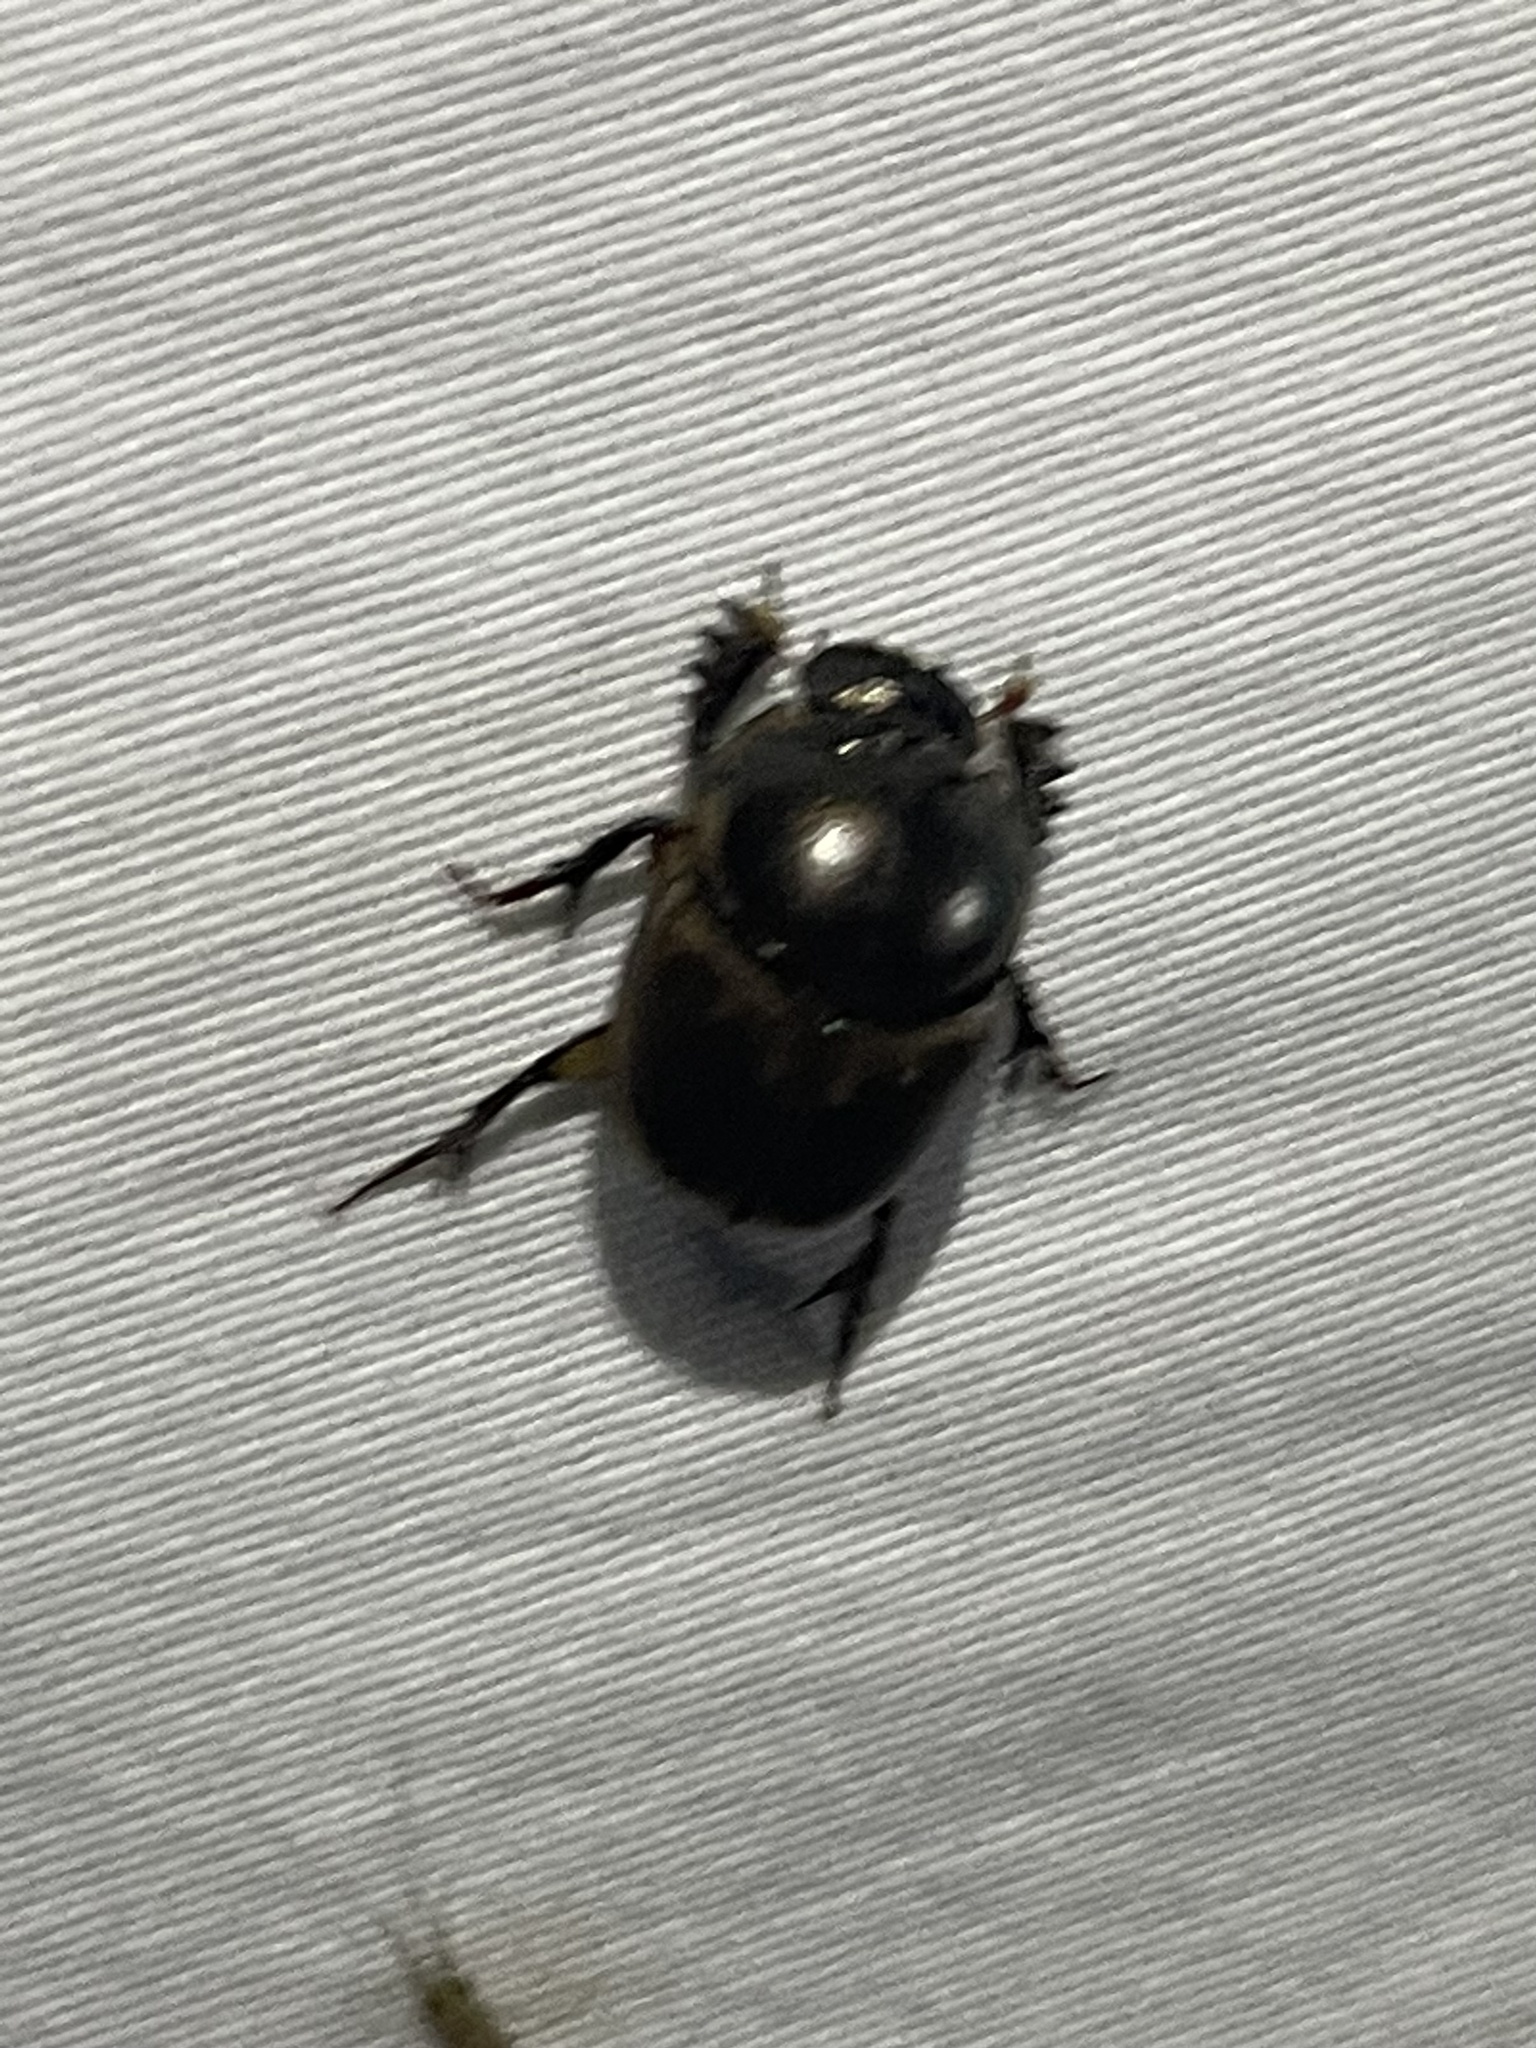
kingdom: Animalia
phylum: Arthropoda
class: Insecta
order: Coleoptera
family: Scarabaeidae
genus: Digitonthophagus
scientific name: Digitonthophagus gazella
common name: Brown dung beetle
